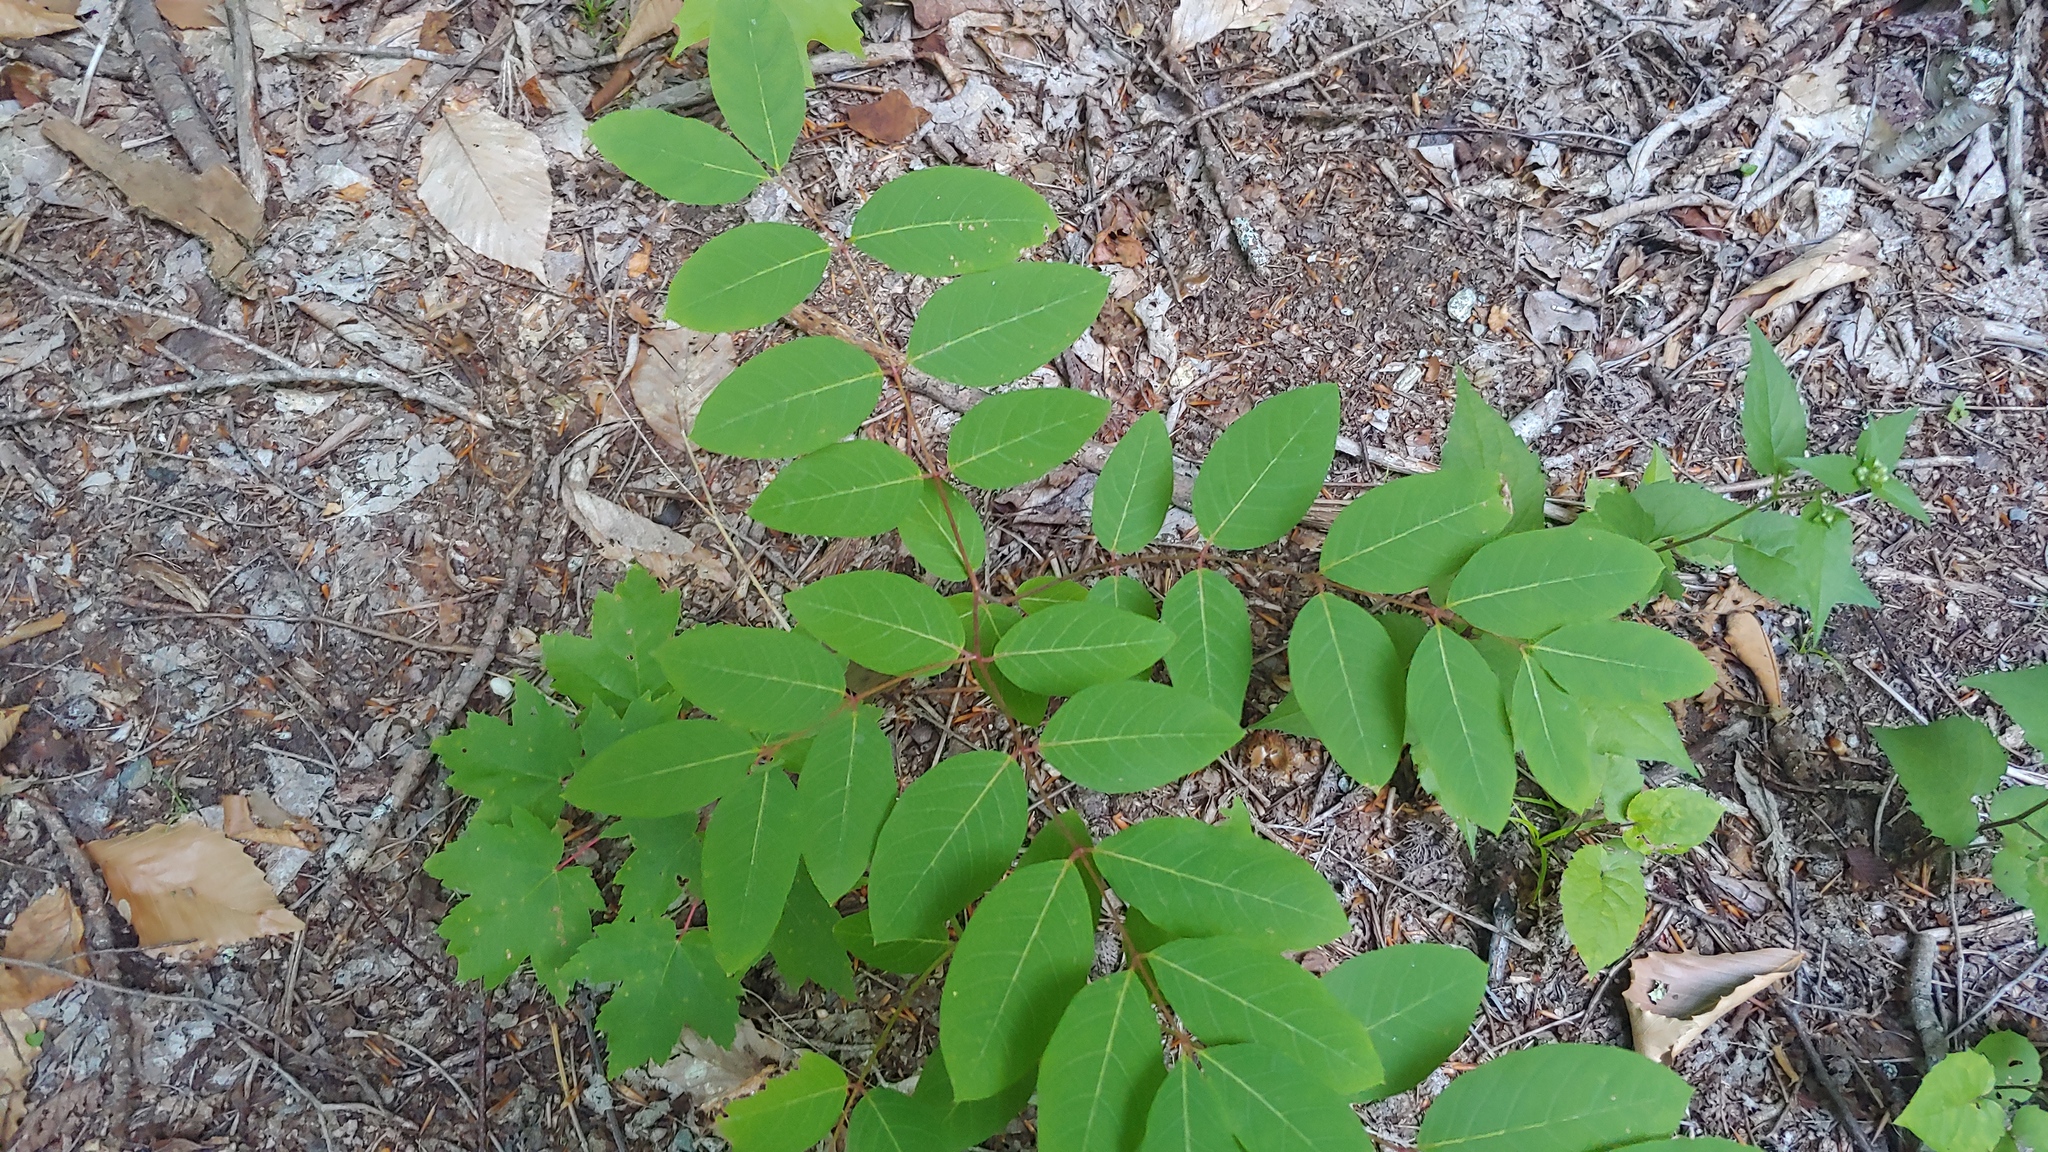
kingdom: Plantae
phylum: Tracheophyta
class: Magnoliopsida
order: Gentianales
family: Apocynaceae
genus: Apocynum
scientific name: Apocynum androsaemifolium
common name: Spreading dogbane
